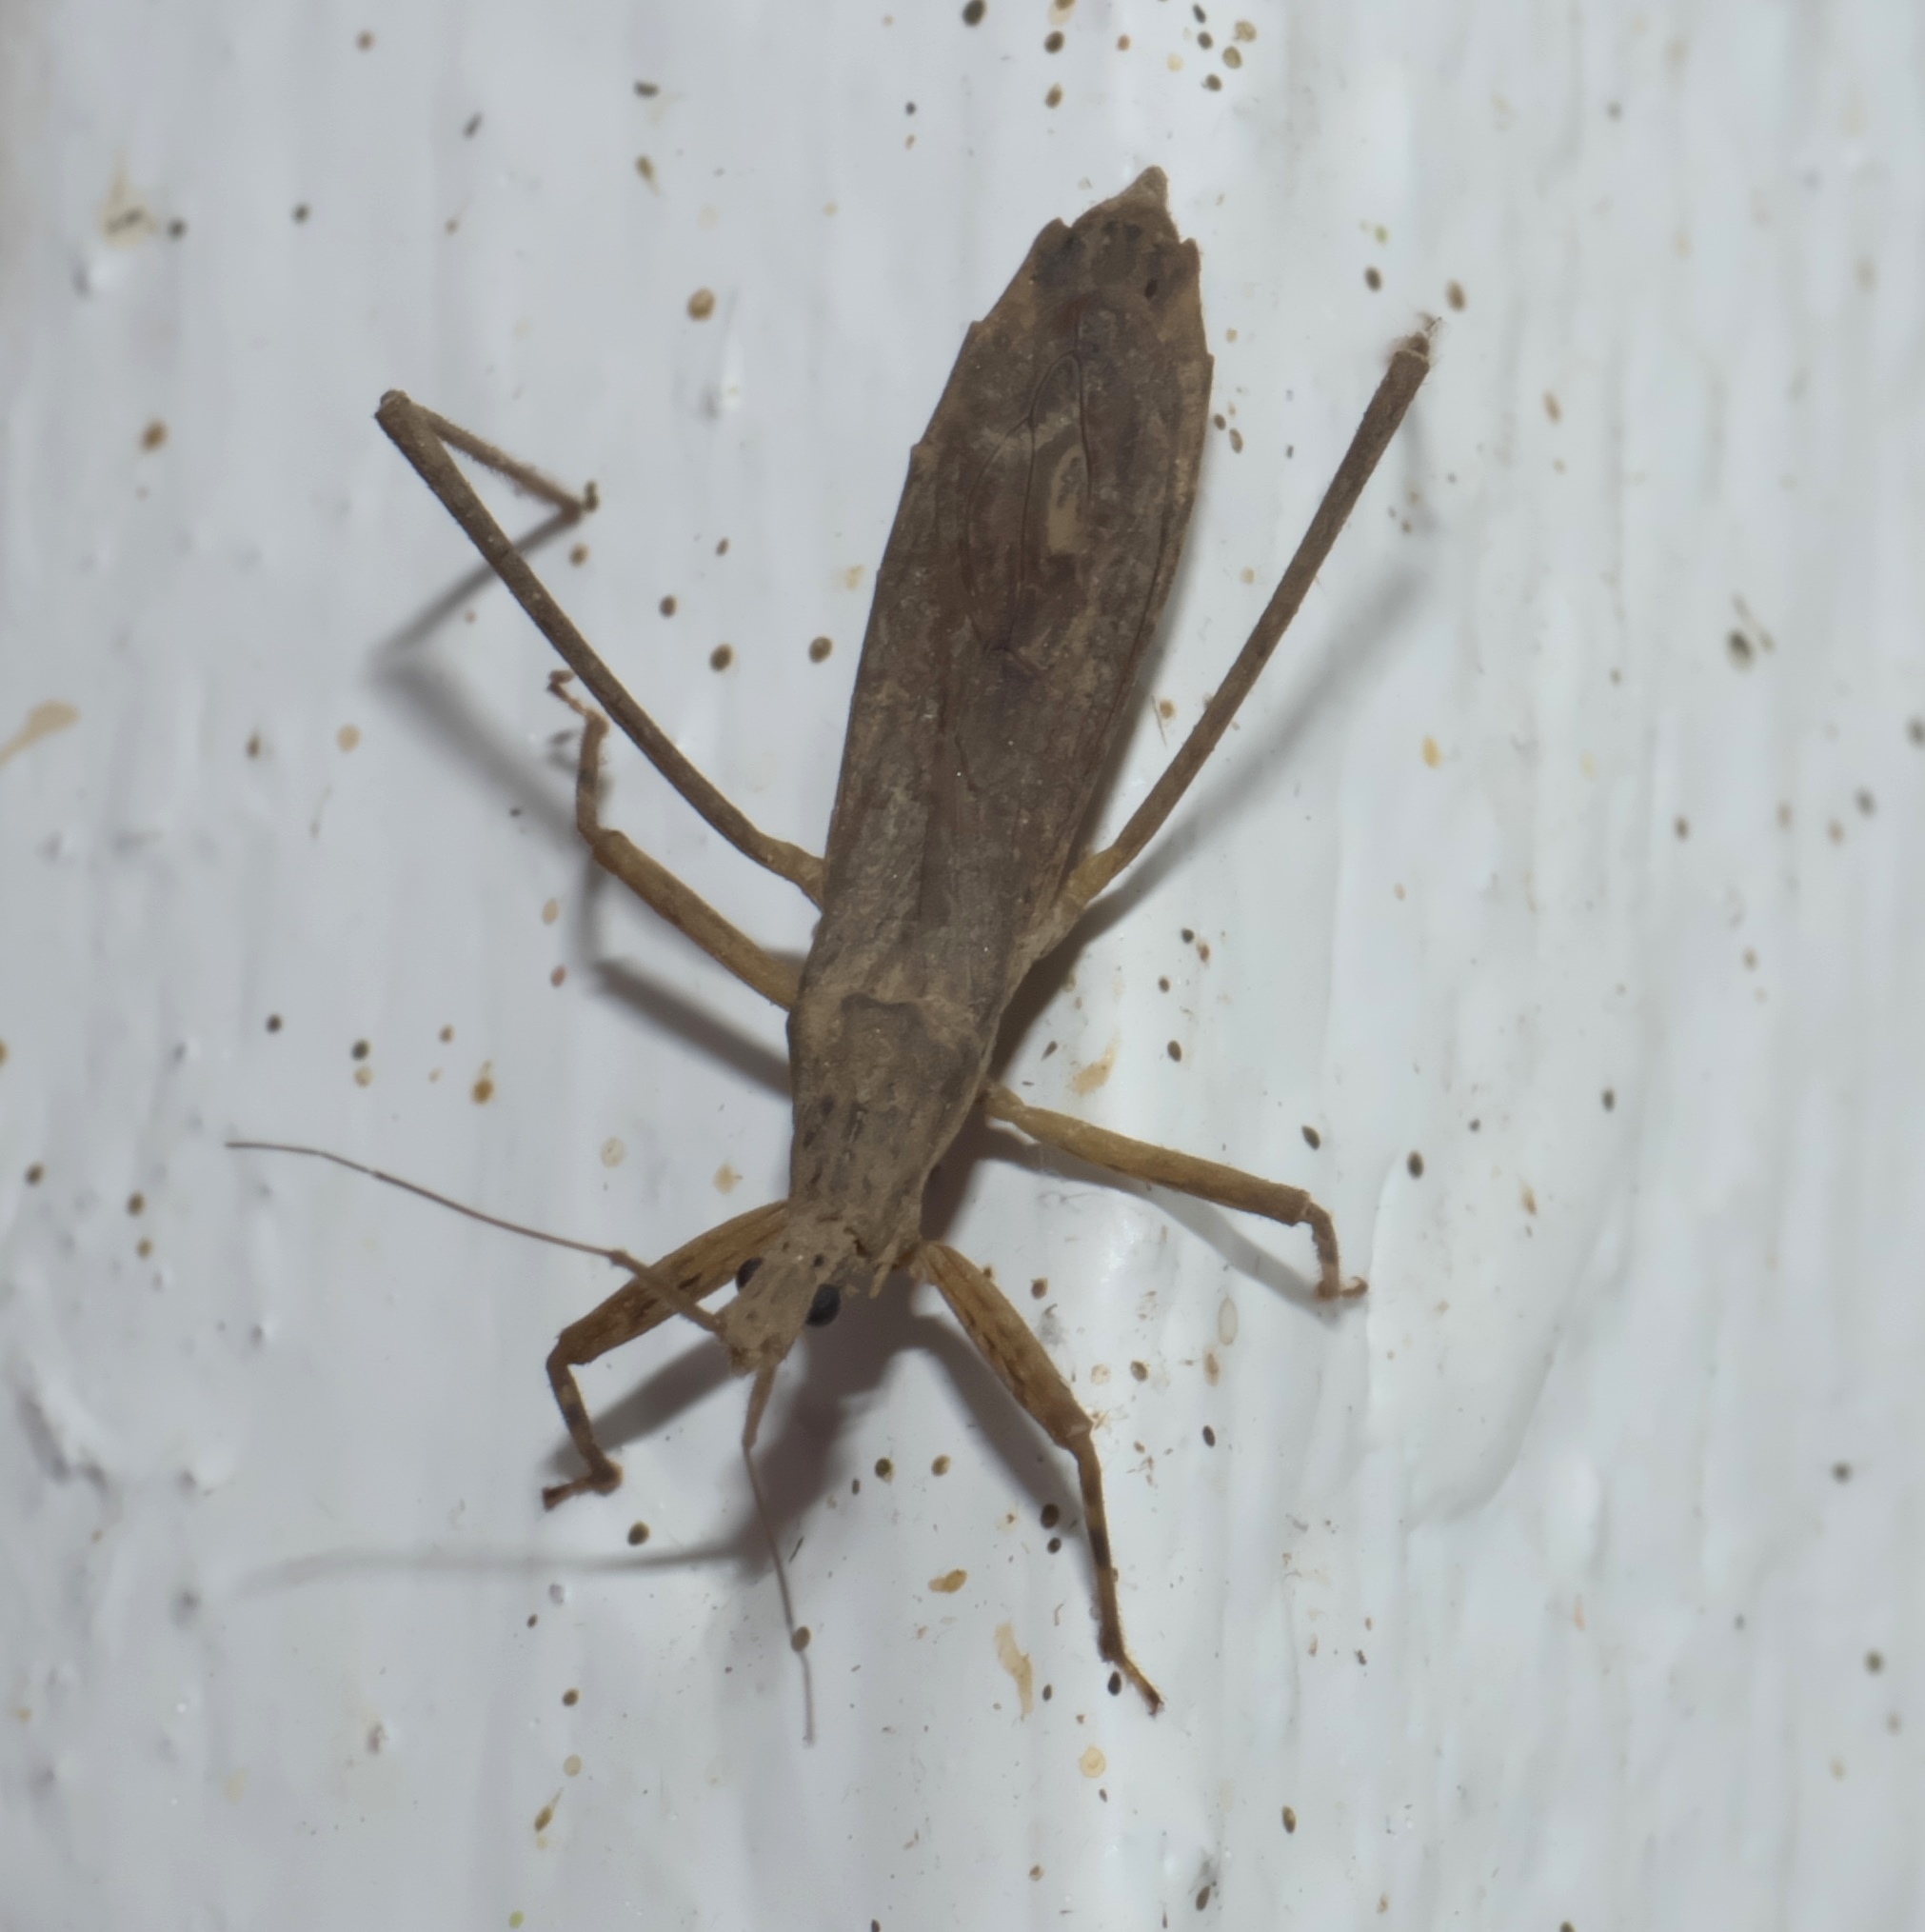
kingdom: Animalia
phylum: Arthropoda
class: Insecta
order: Hemiptera
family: Reduviidae
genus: Pygolampis
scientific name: Pygolampis pectoralis
